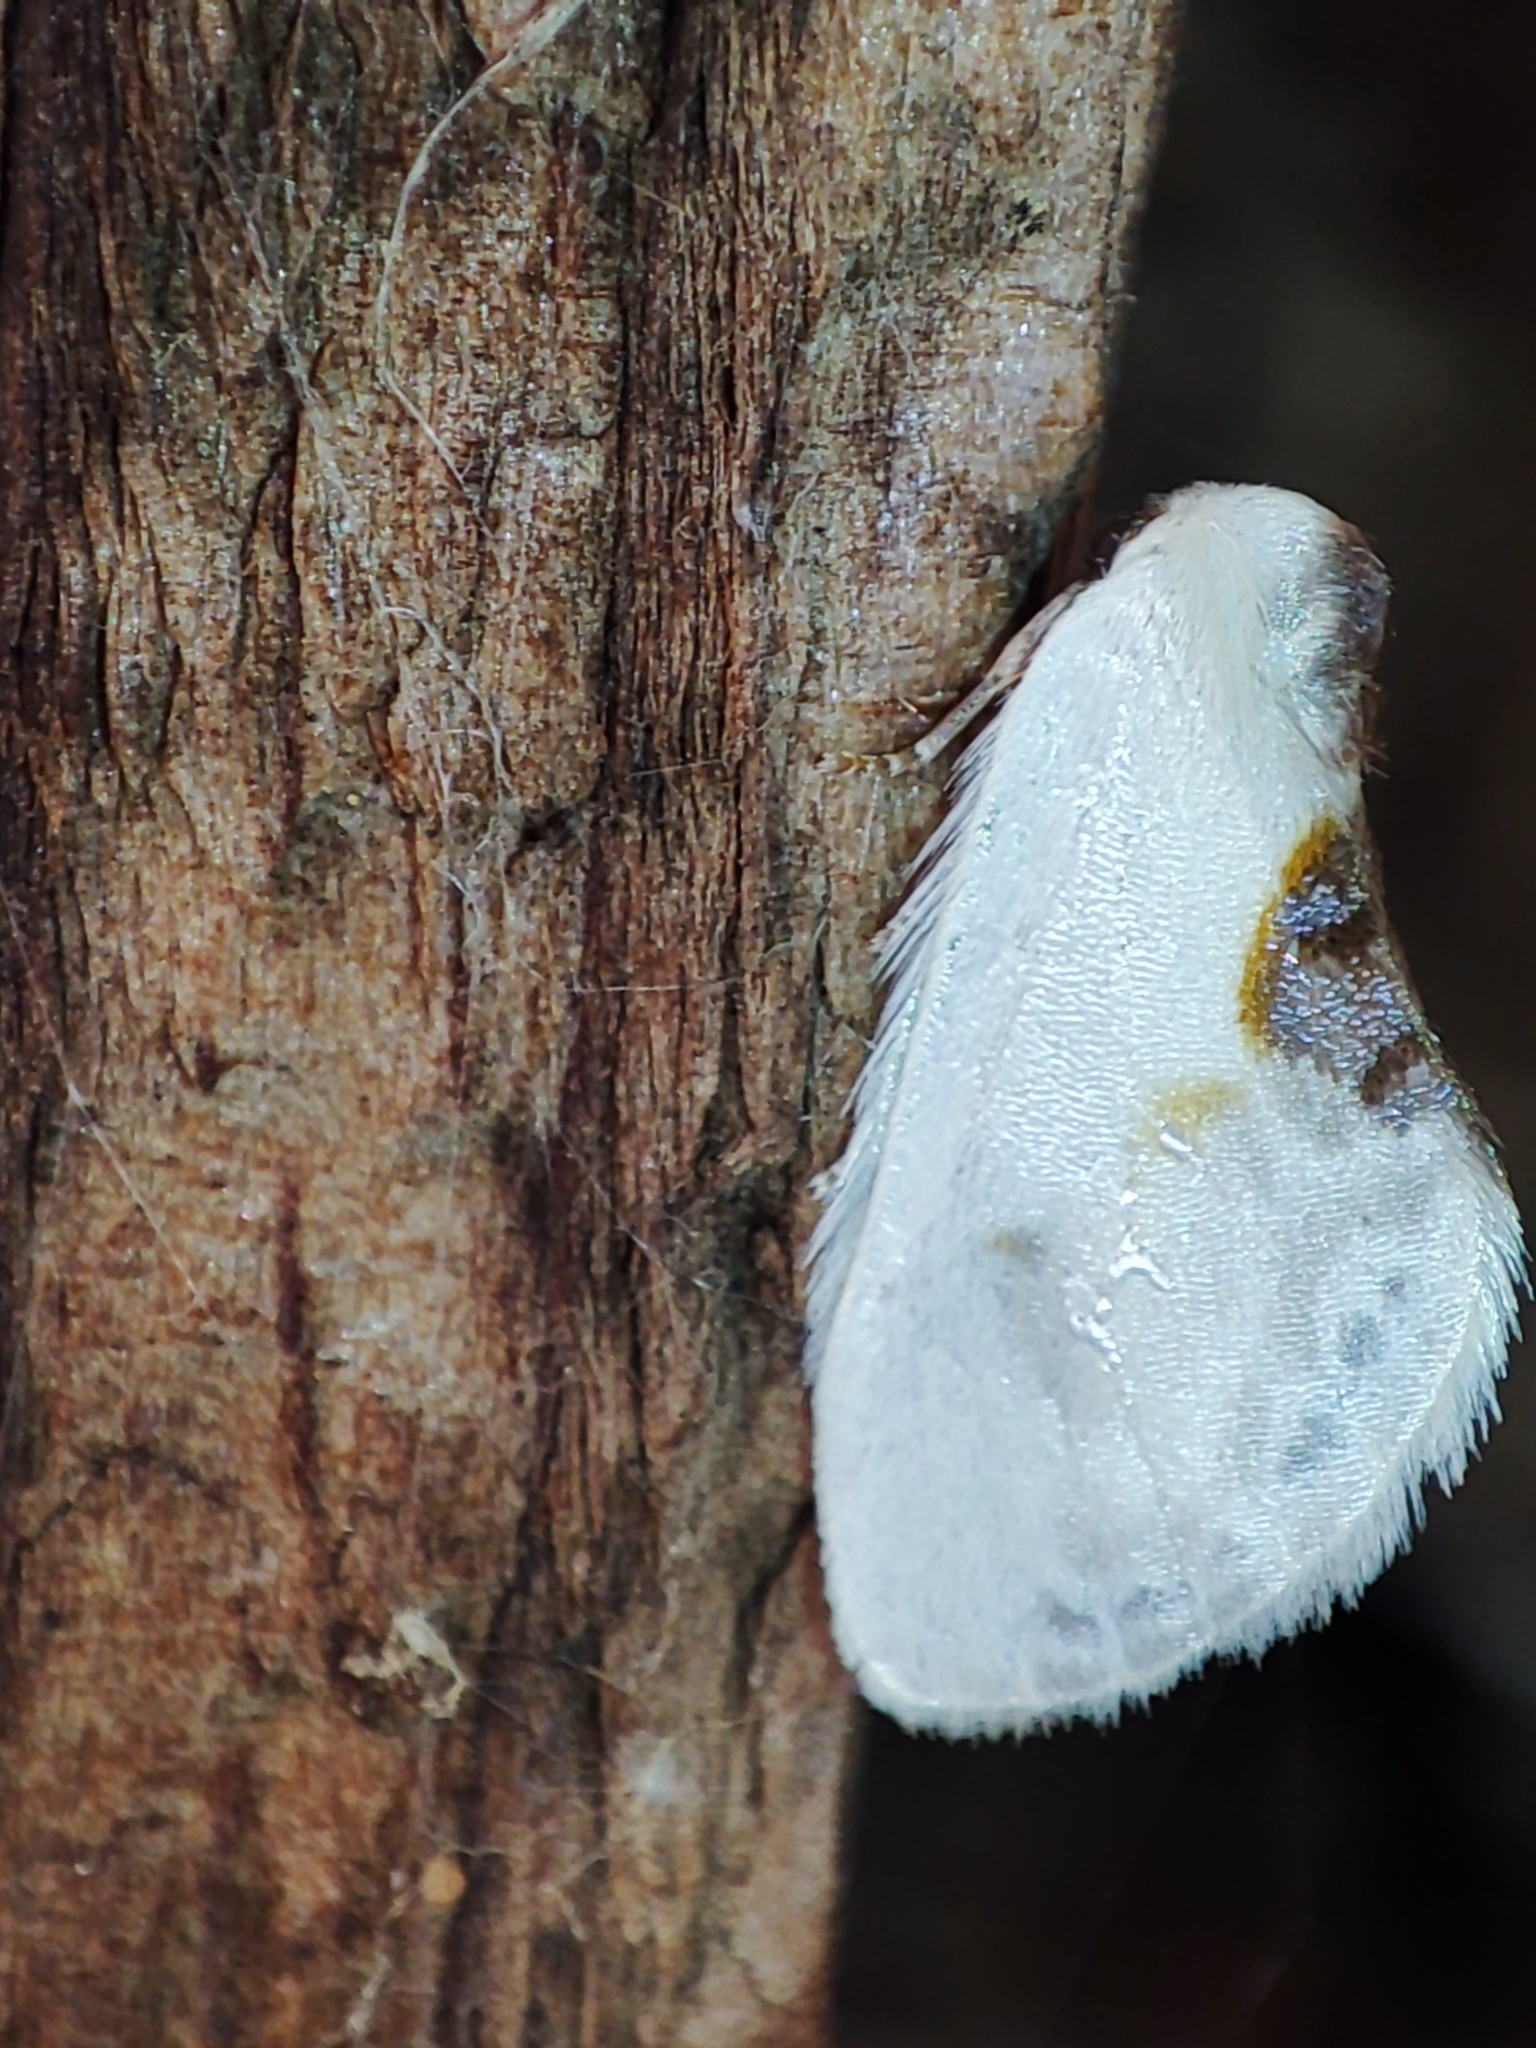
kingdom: Animalia
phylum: Arthropoda
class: Insecta
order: Lepidoptera
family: Drepanidae
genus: Cilix
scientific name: Cilix glaucata
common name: Chinese character
